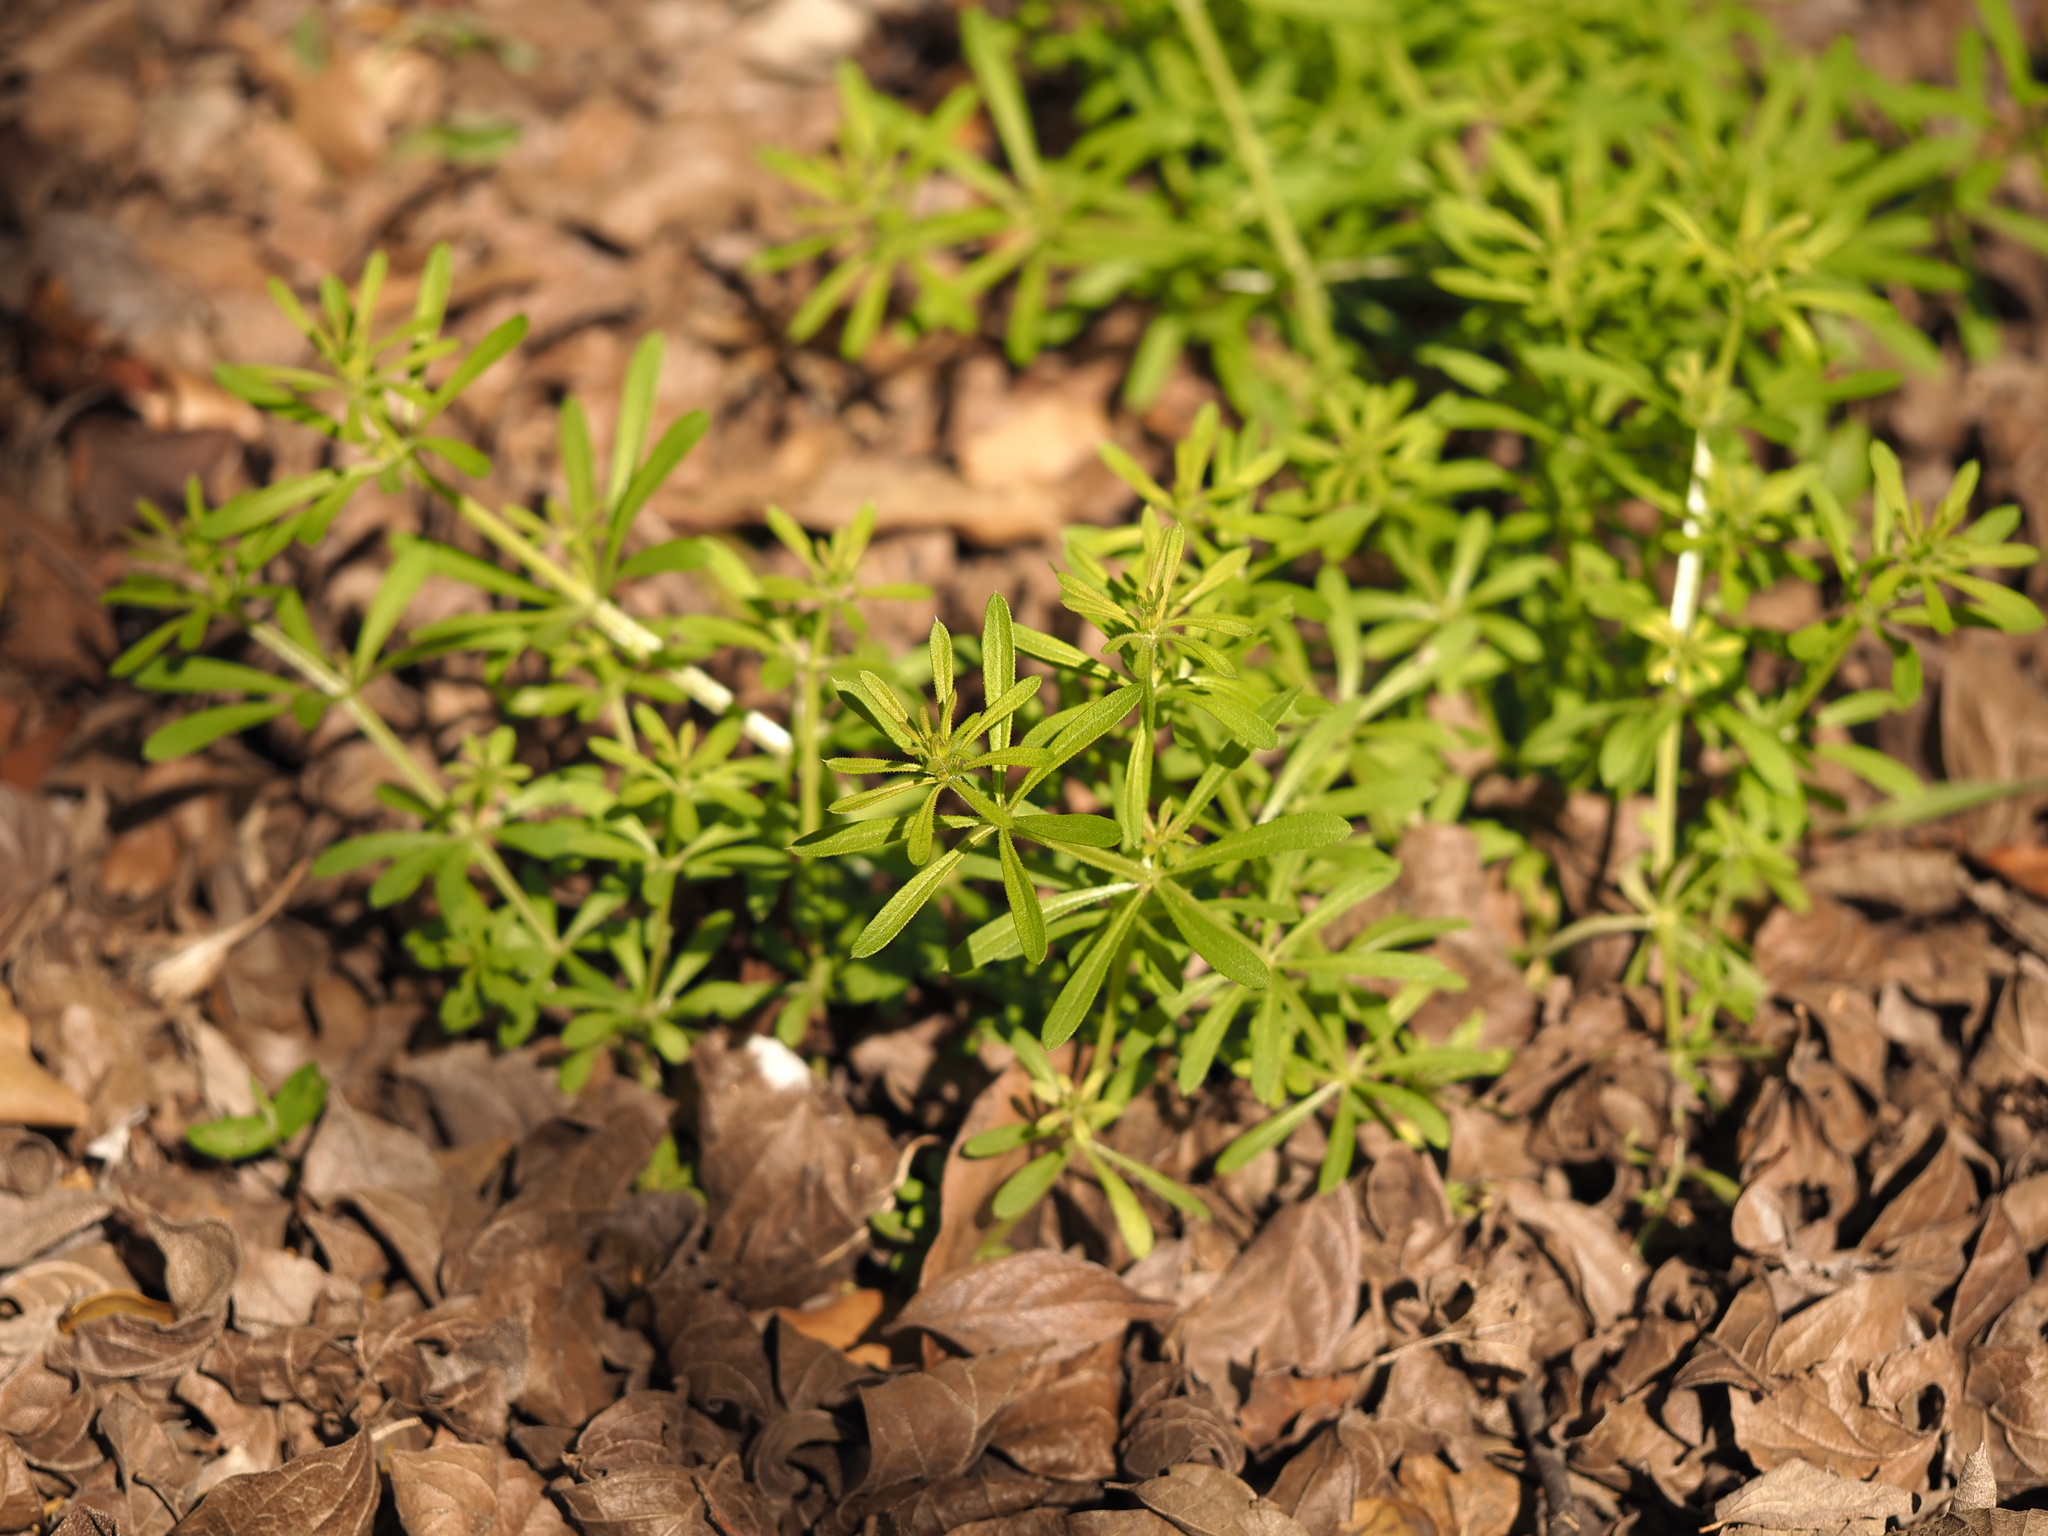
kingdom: Plantae
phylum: Tracheophyta
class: Magnoliopsida
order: Gentianales
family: Rubiaceae
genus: Galium
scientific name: Galium aparine
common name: Cleavers
